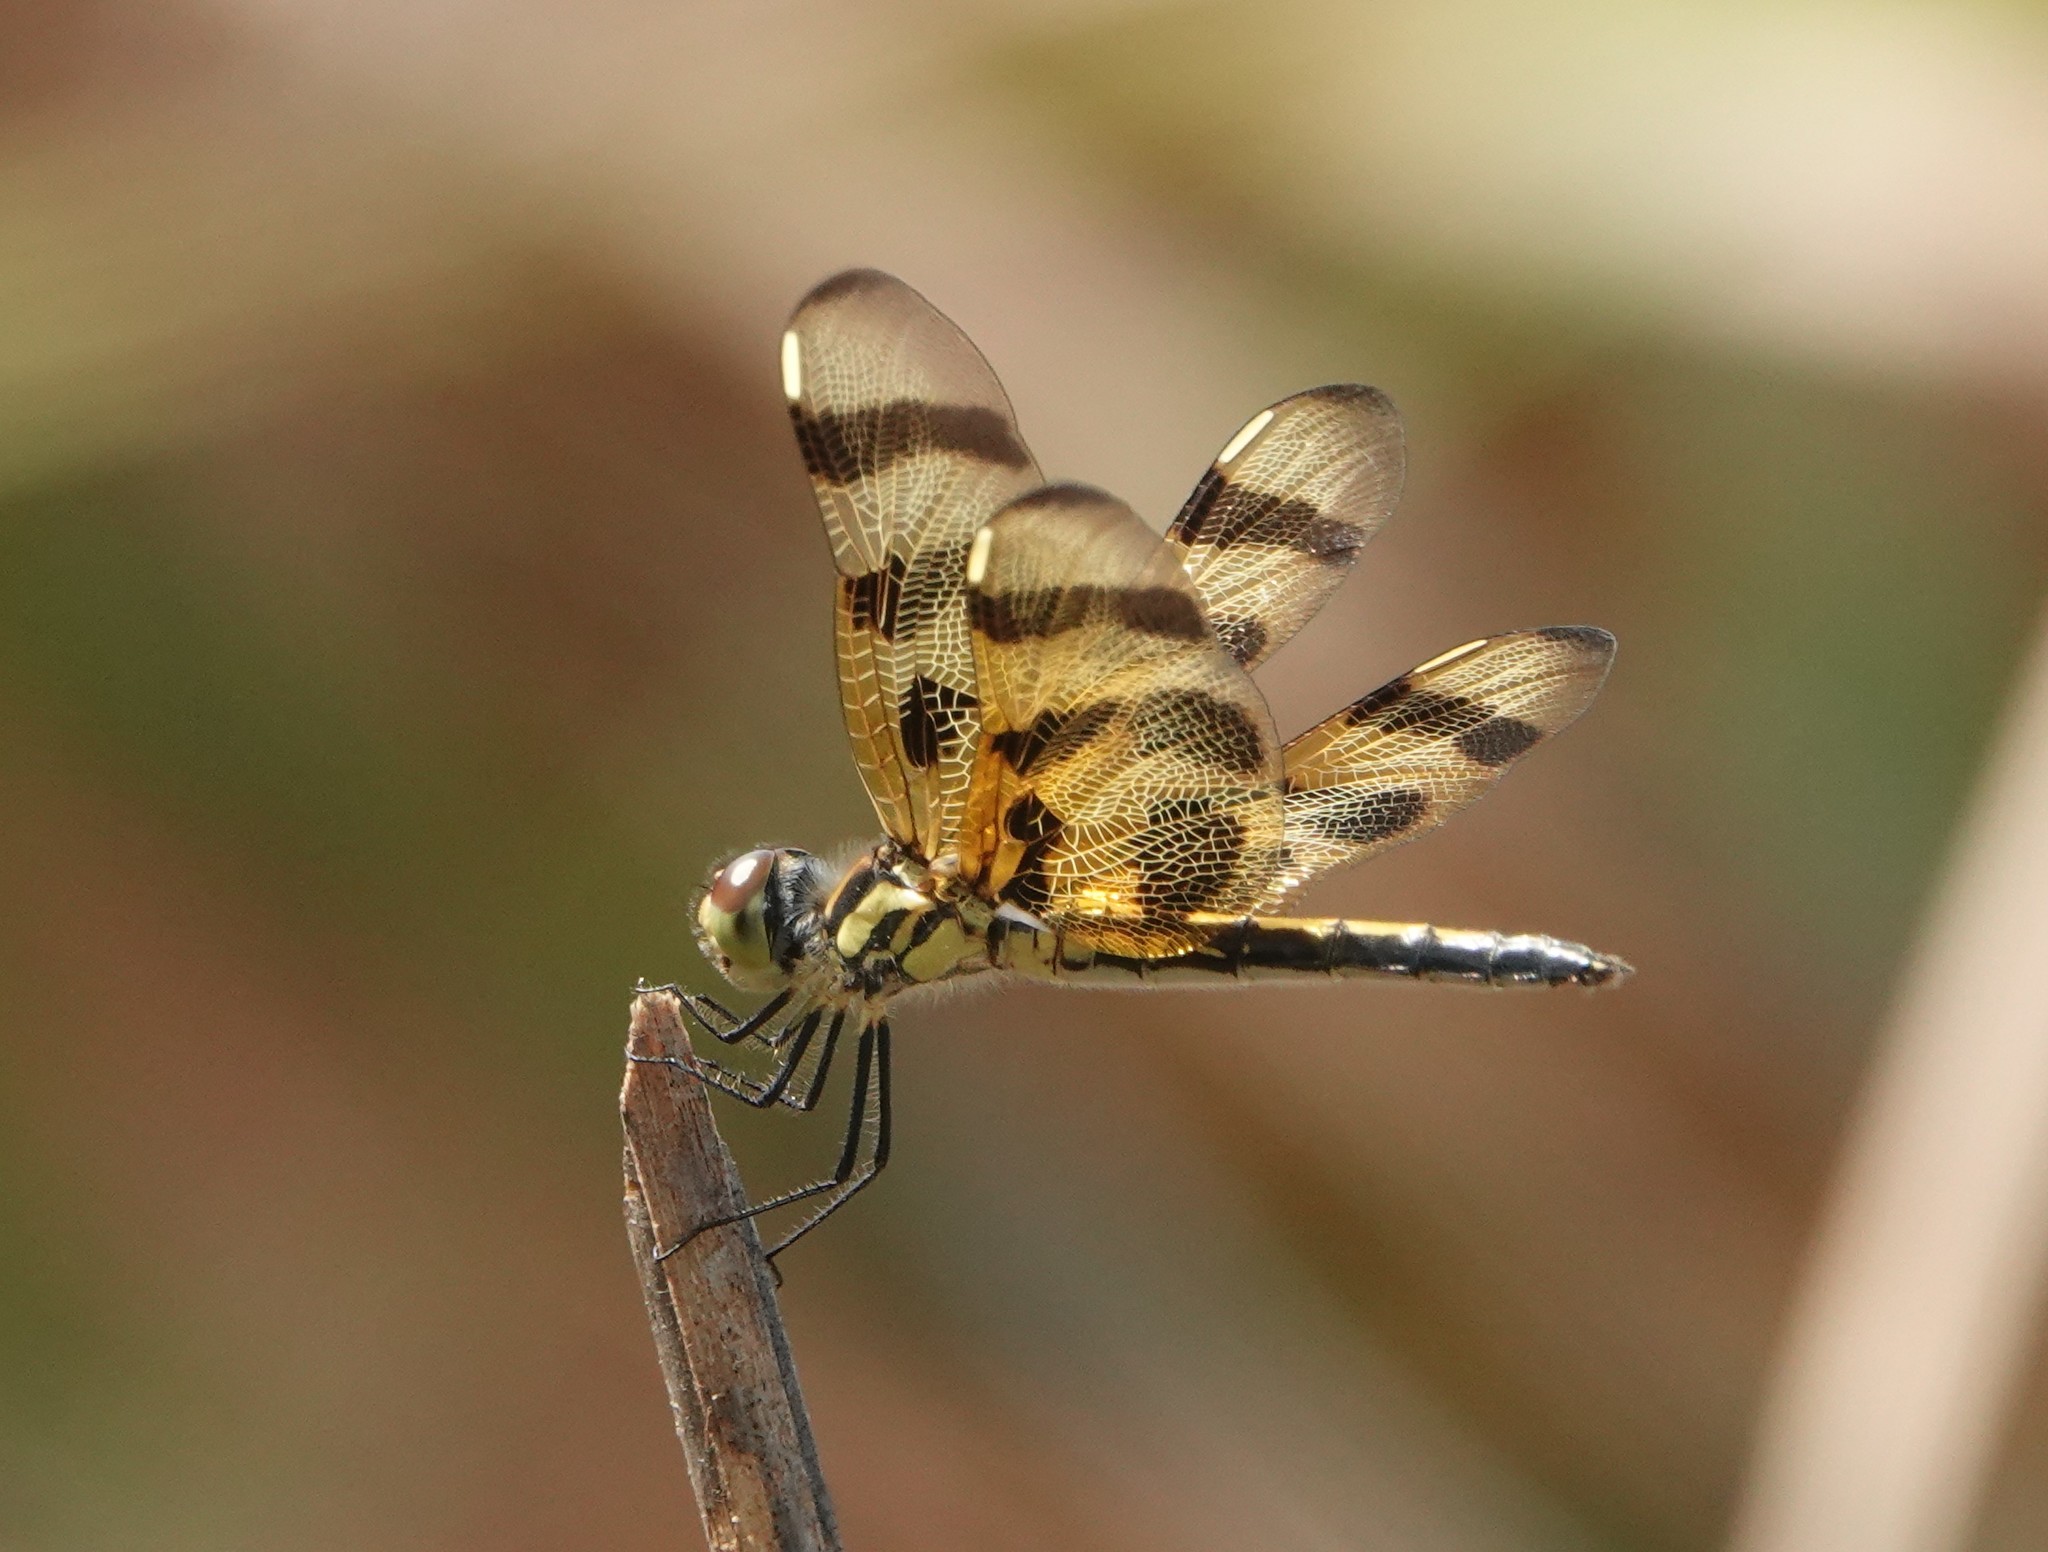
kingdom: Animalia
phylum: Arthropoda
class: Insecta
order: Odonata
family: Libellulidae
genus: Celithemis
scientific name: Celithemis eponina
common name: Halloween pennant
